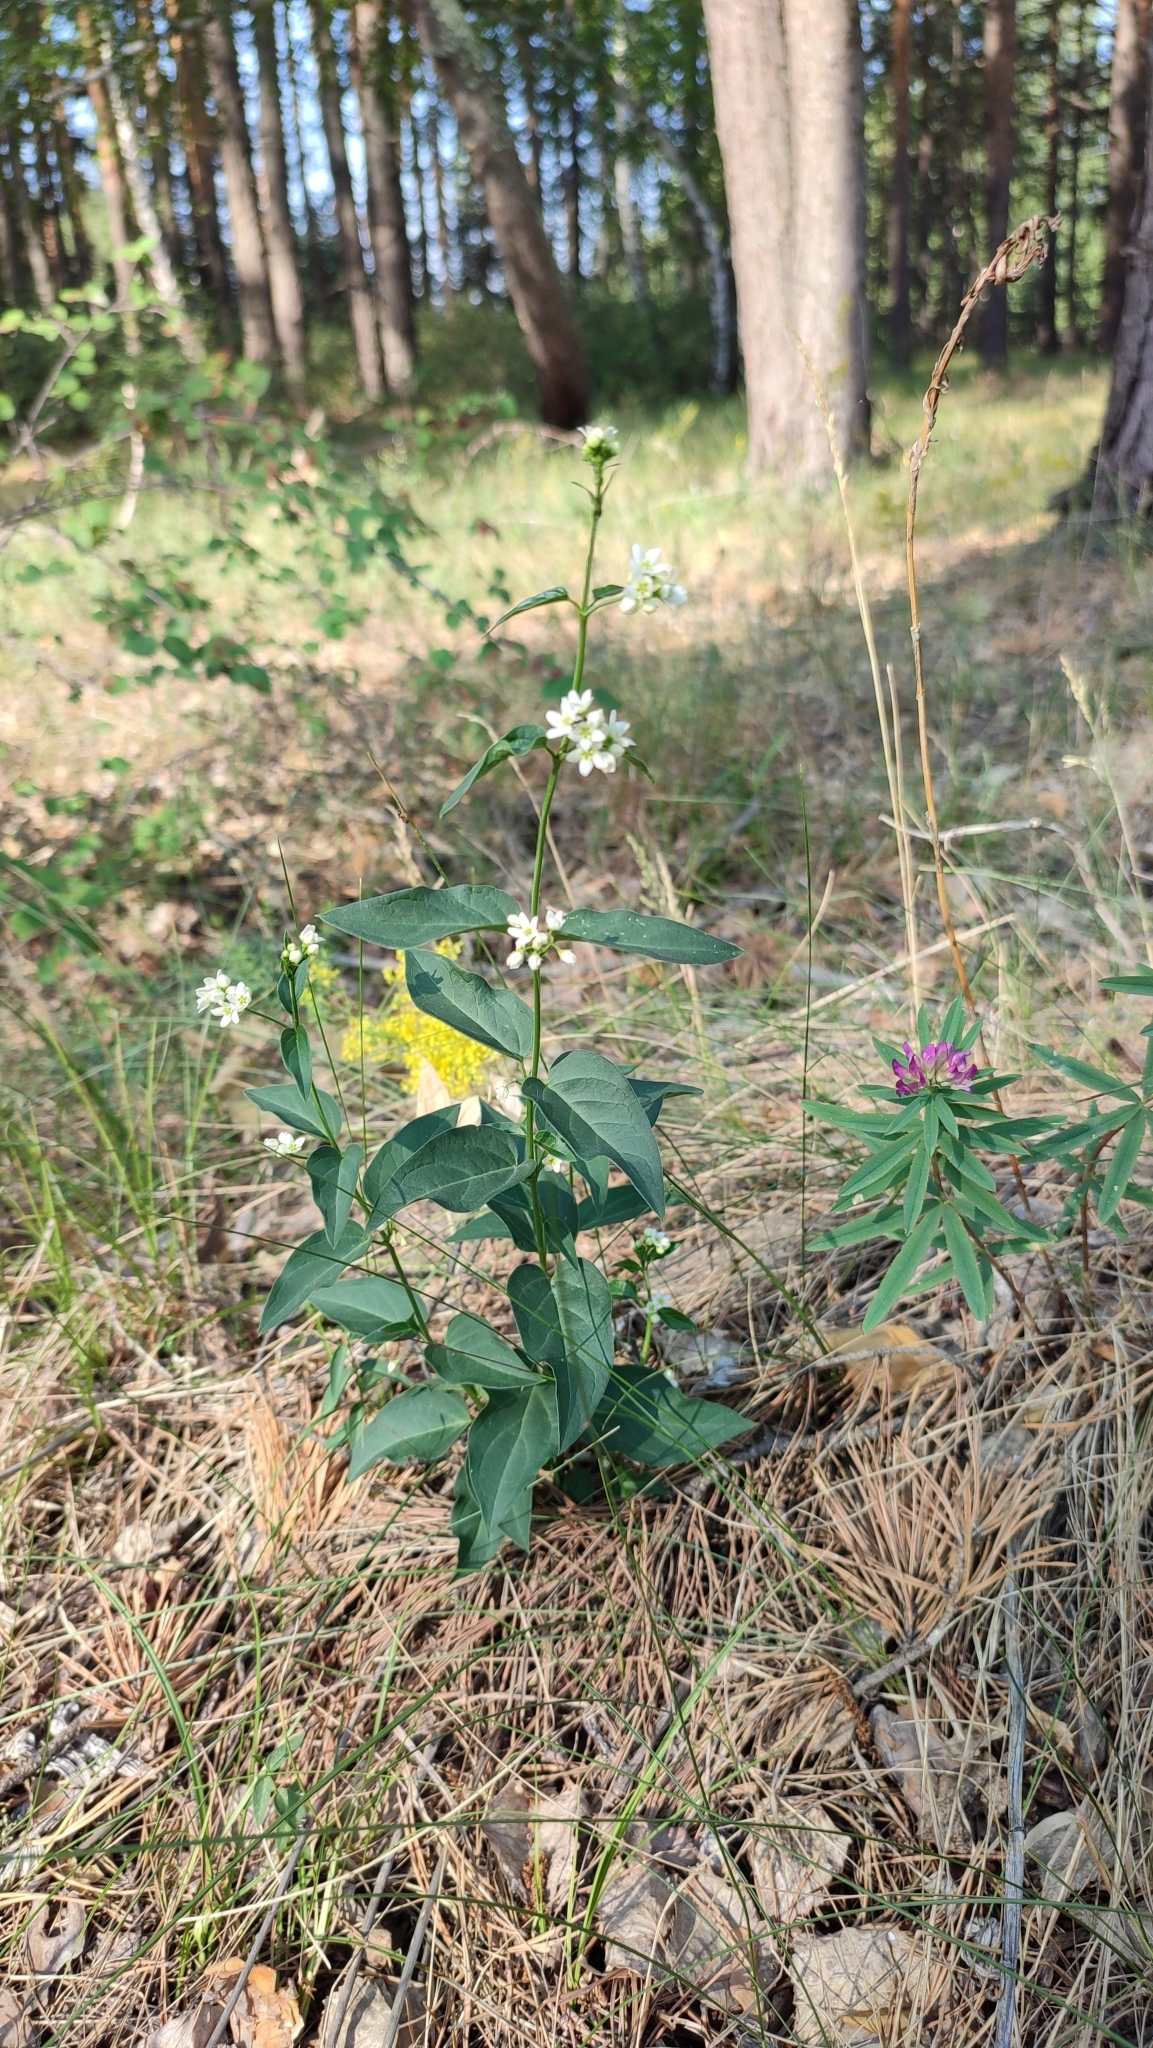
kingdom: Plantae
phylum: Tracheophyta
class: Magnoliopsida
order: Gentianales
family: Apocynaceae
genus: Vincetoxicum
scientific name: Vincetoxicum hirundinaria
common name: White swallowwort
